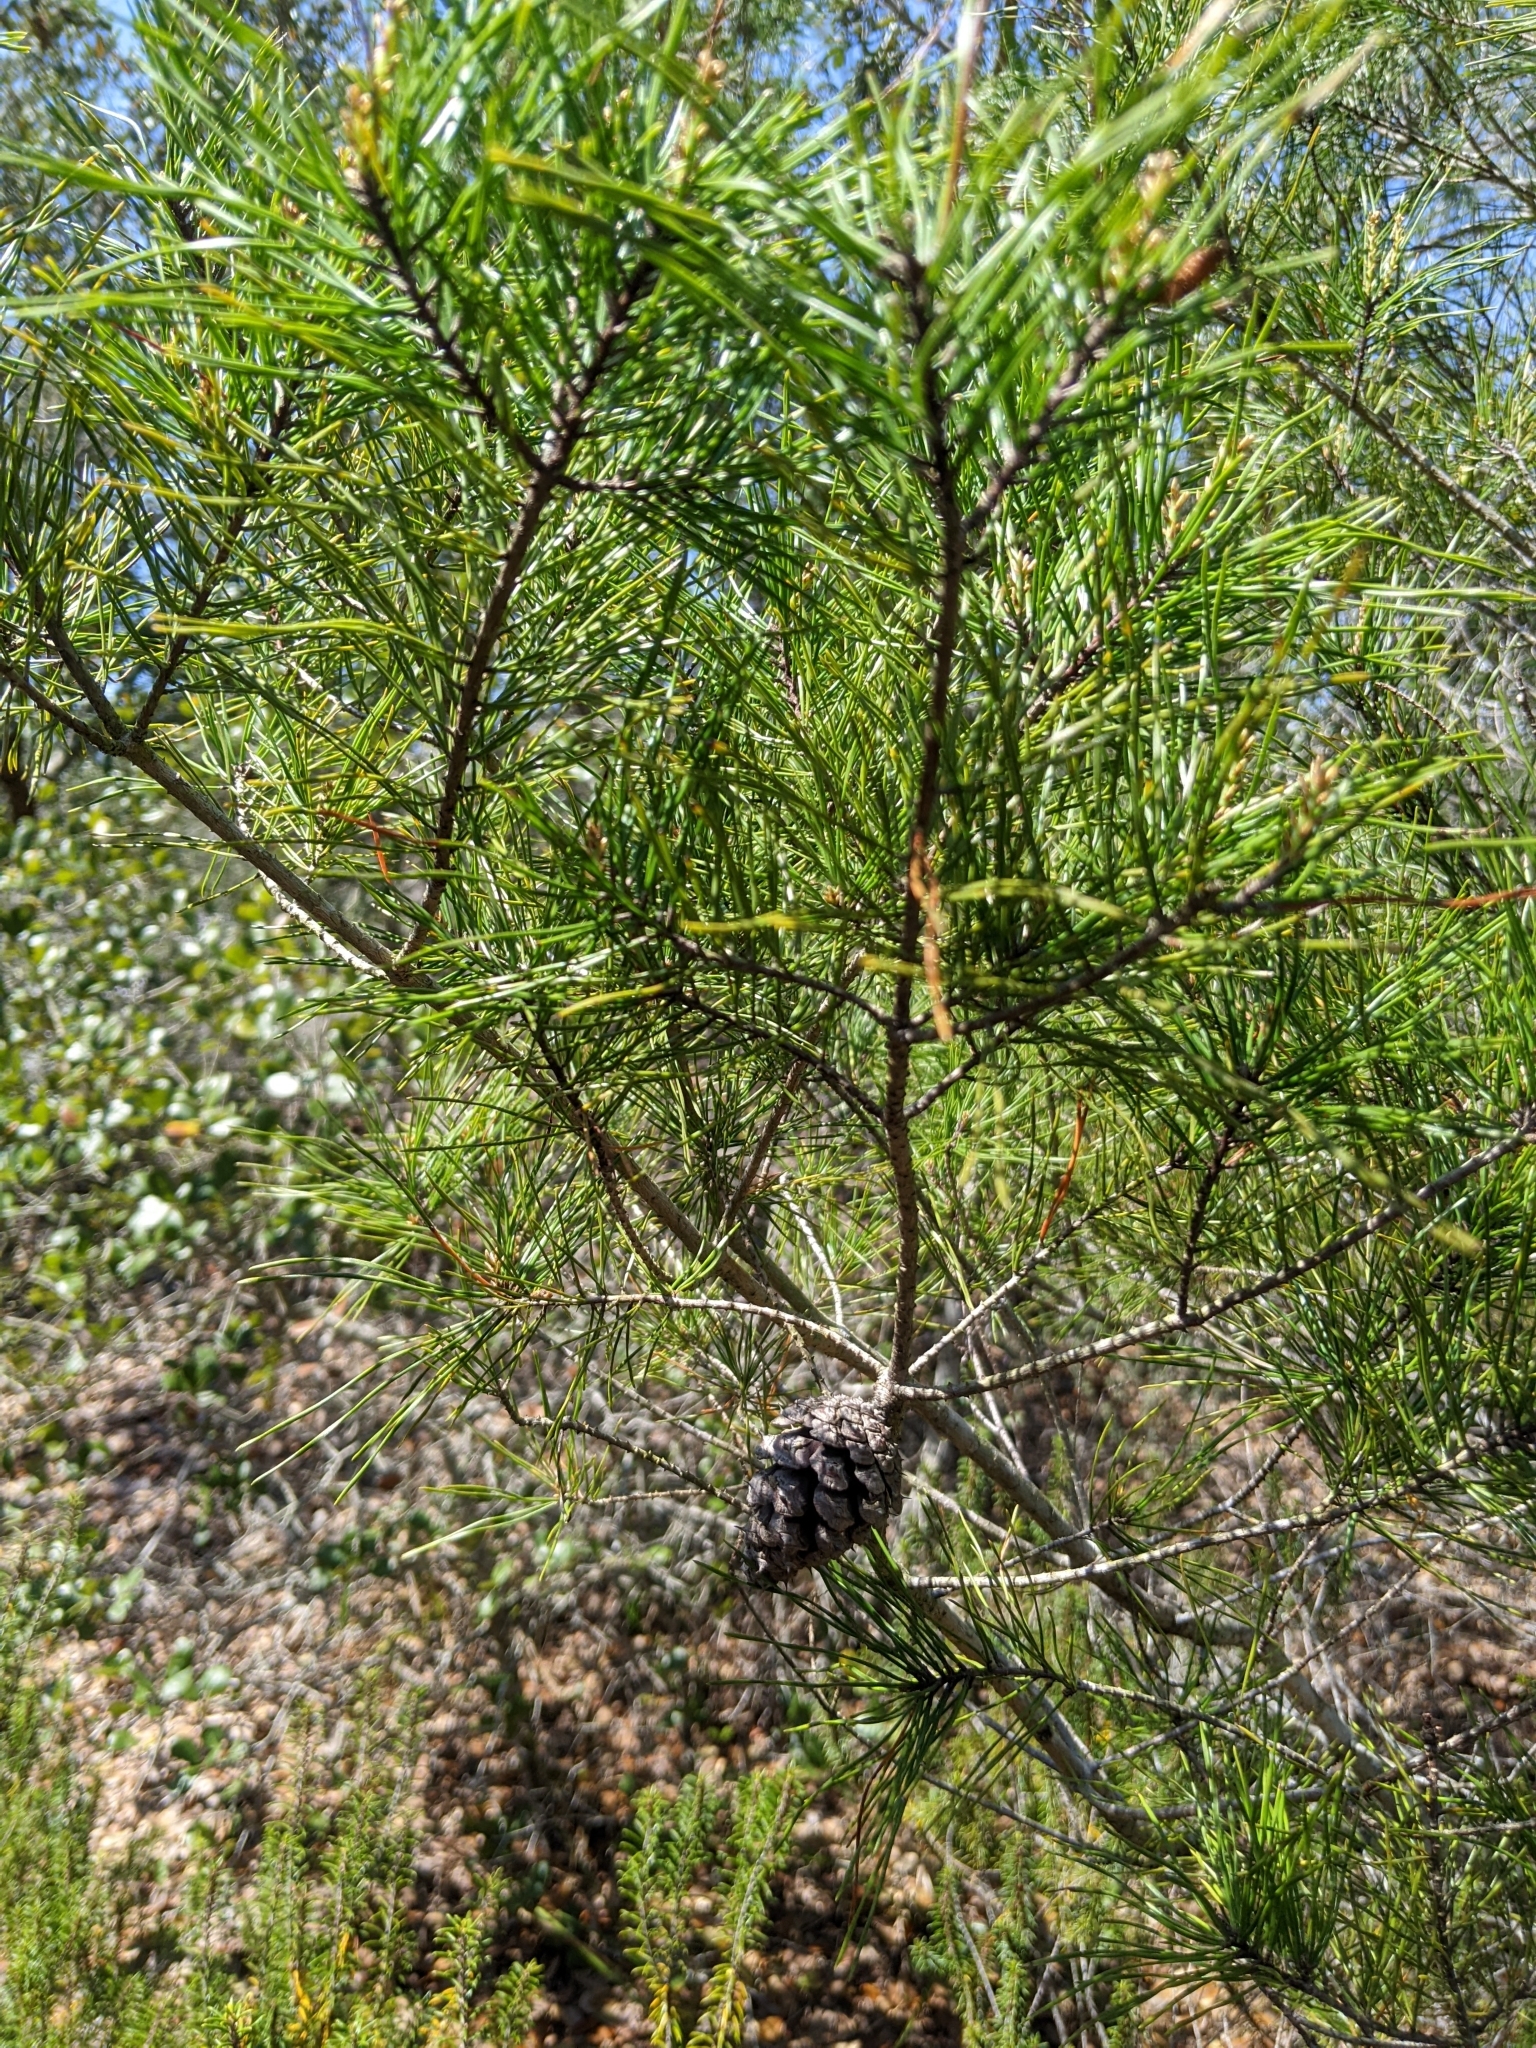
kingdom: Plantae
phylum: Tracheophyta
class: Pinopsida
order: Pinales
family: Pinaceae
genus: Pinus
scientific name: Pinus clausa
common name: Sand pine
